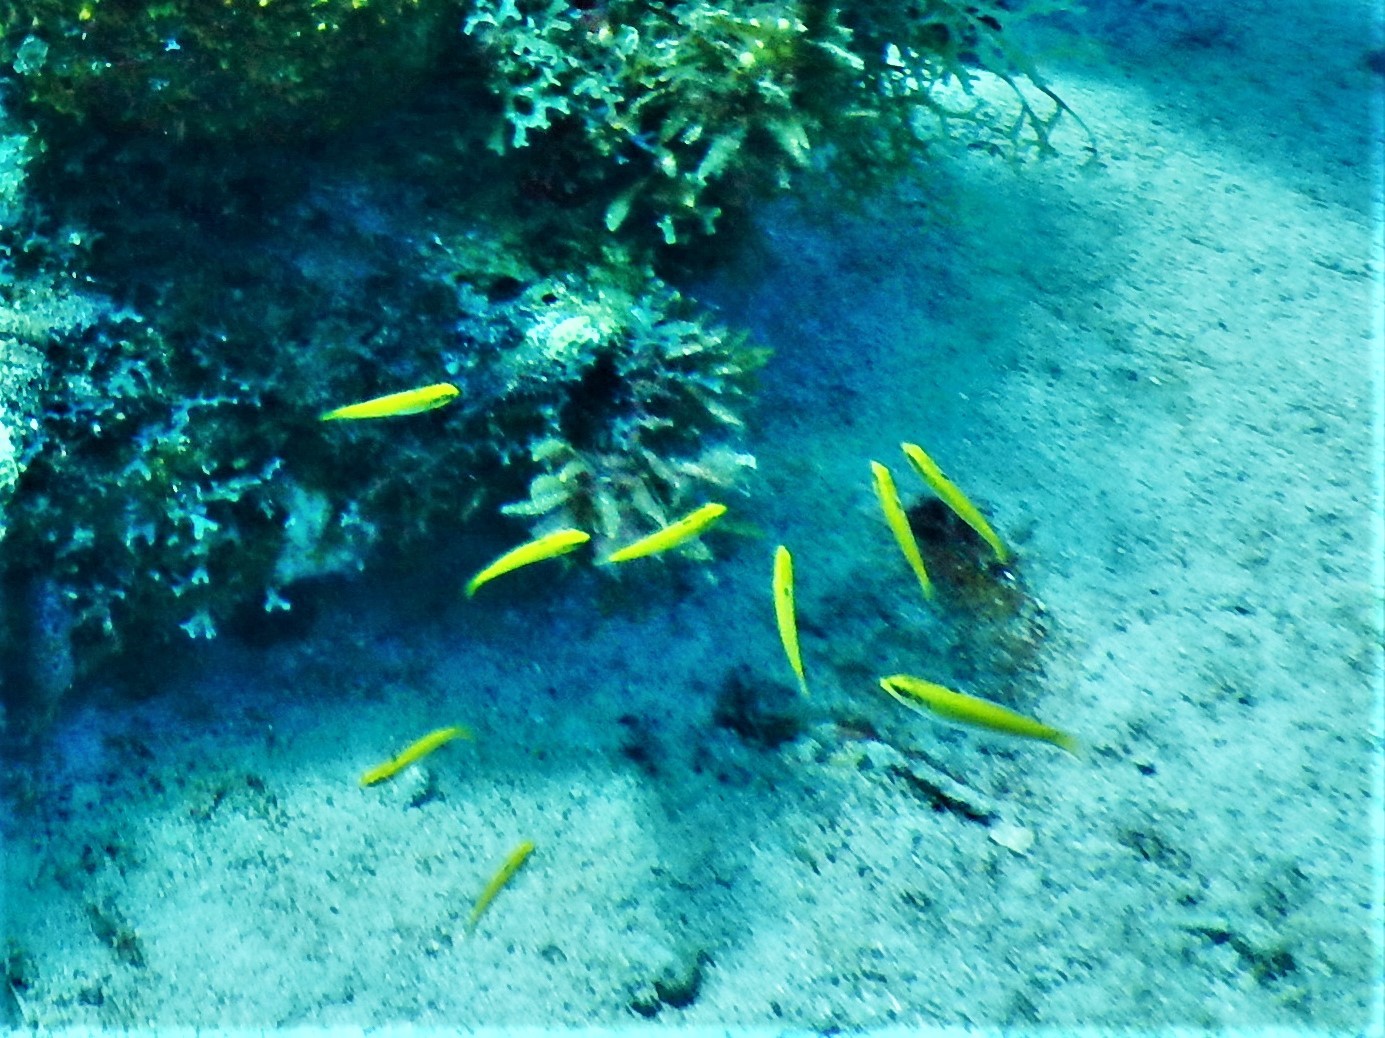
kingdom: Animalia
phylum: Chordata
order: Perciformes
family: Labridae
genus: Thalassoma
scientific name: Thalassoma bifasciatum
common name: Bluehead wrasse
